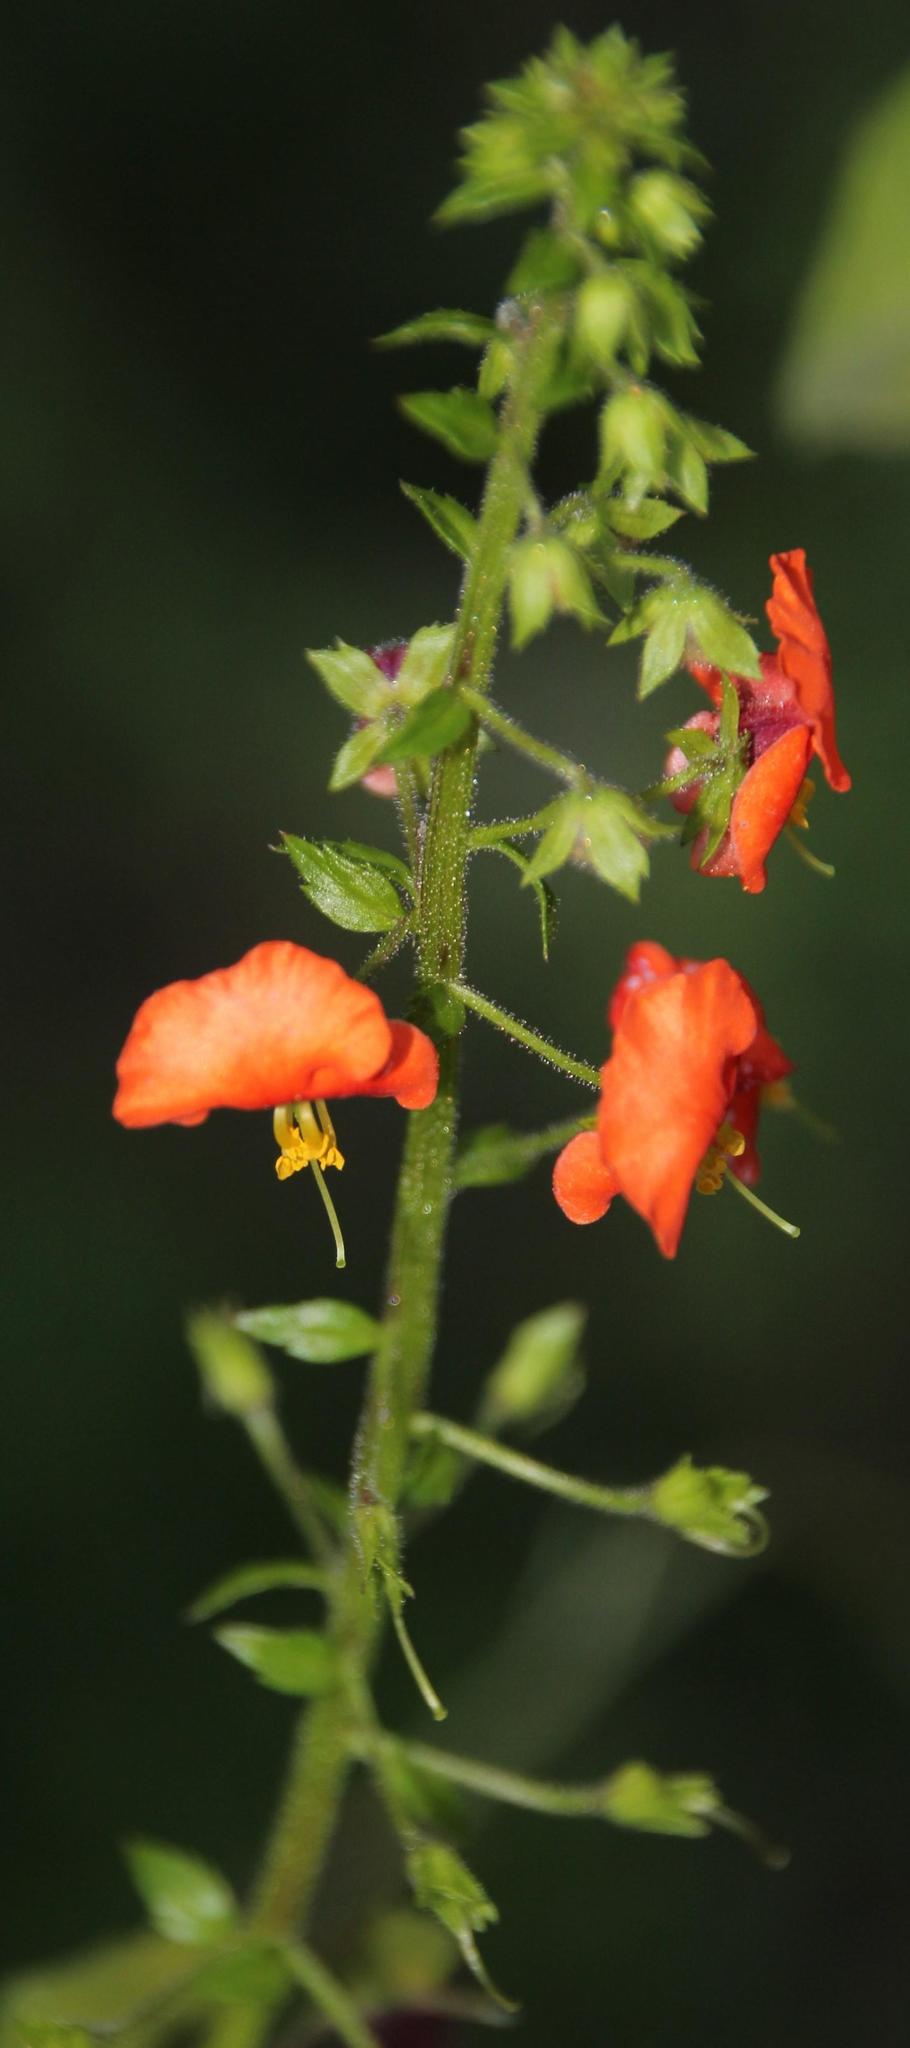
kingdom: Plantae
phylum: Tracheophyta
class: Magnoliopsida
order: Lamiales
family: Scrophulariaceae
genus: Alonsoa
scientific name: Alonsoa meridionalis
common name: Maskflower
